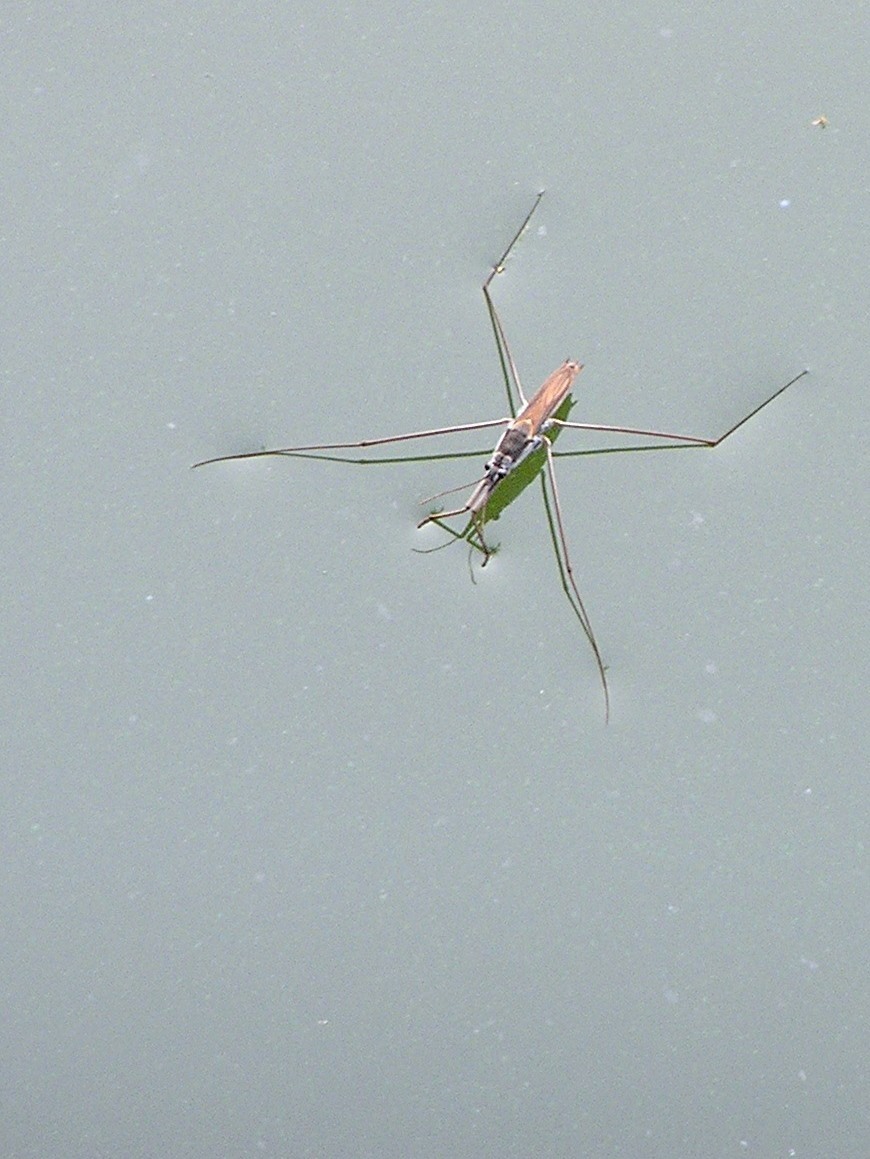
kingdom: Animalia
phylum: Arthropoda
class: Insecta
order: Hemiptera
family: Gerridae
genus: Aquarius
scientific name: Aquarius adelaidis
